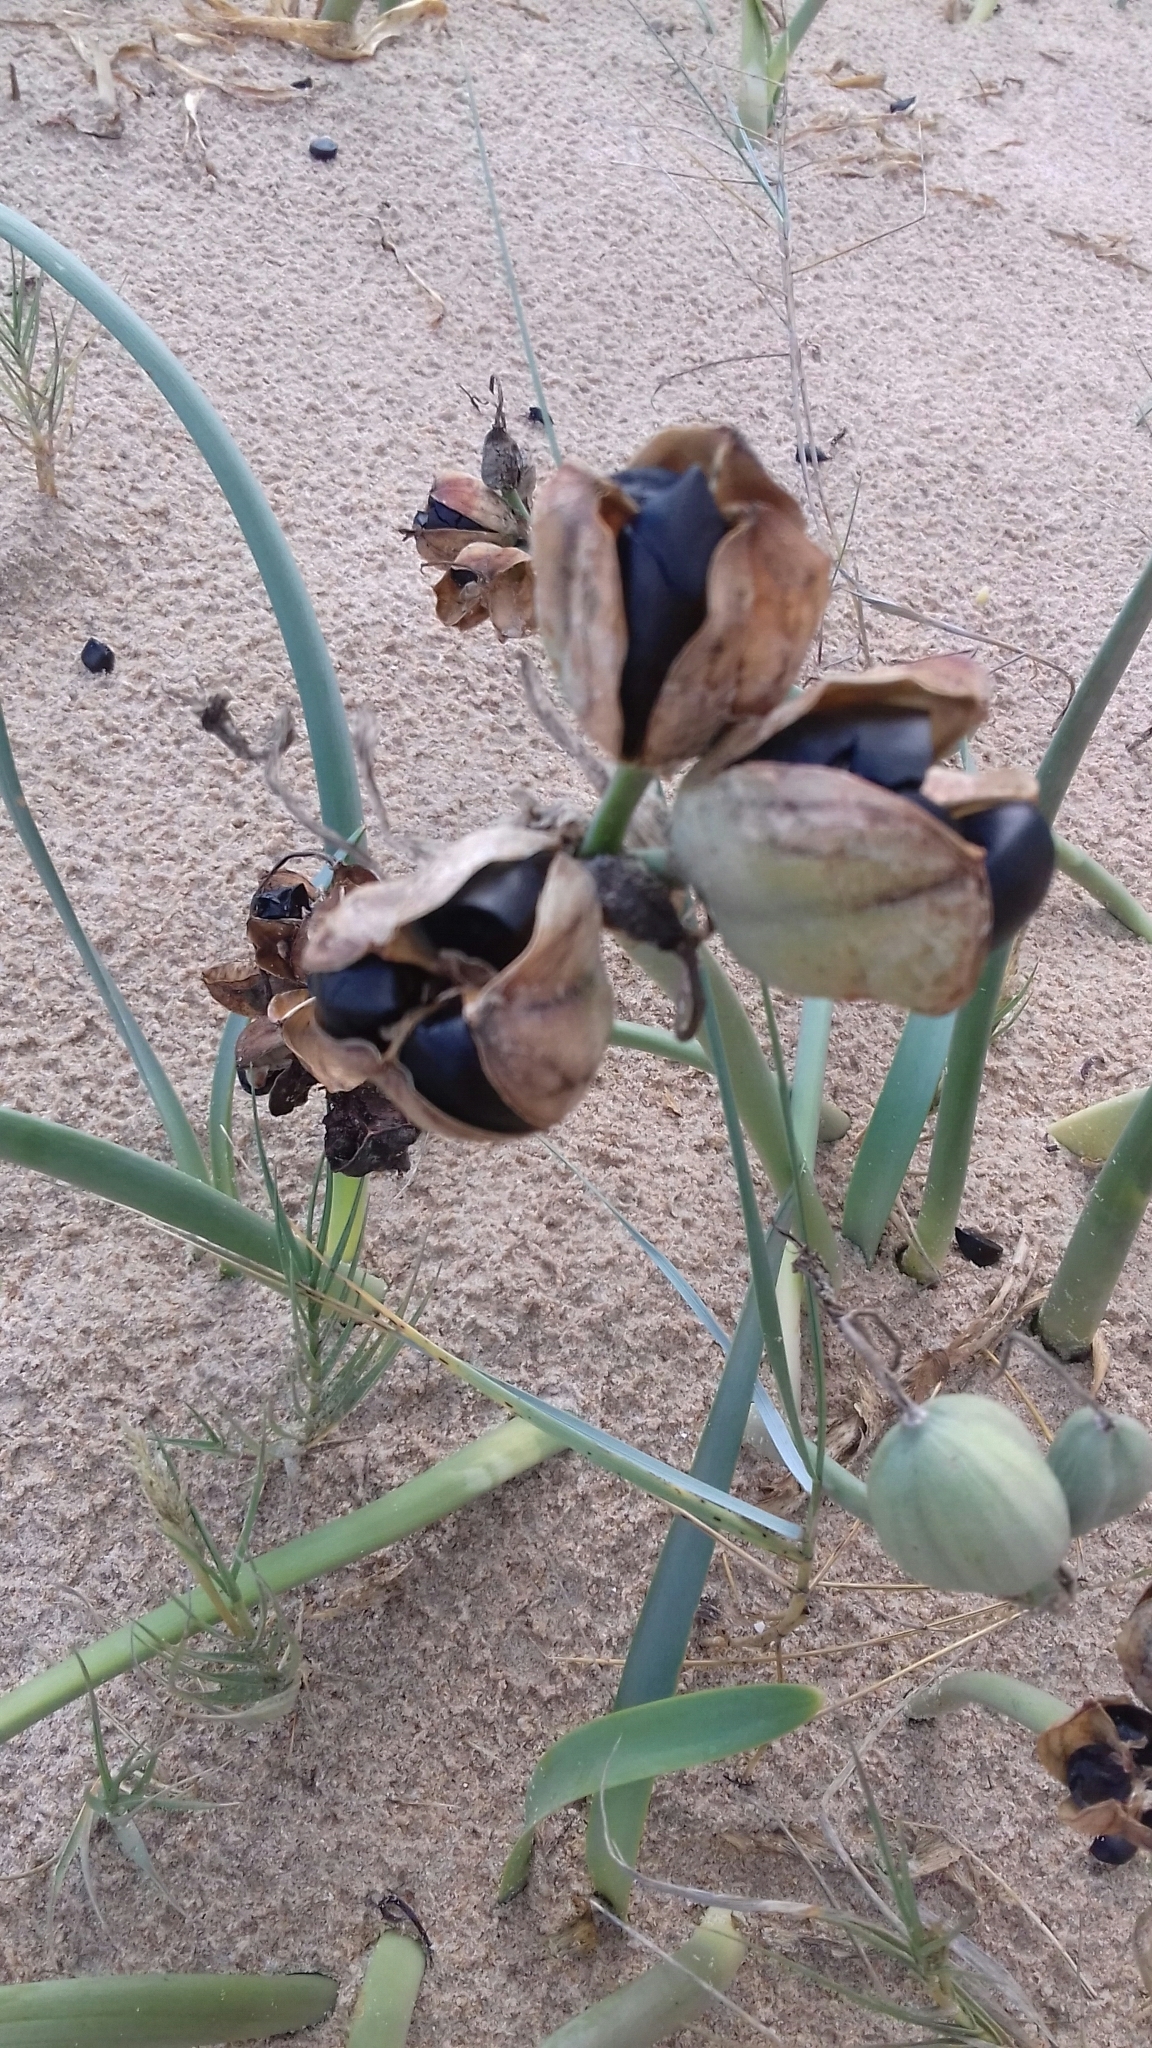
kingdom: Plantae
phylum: Tracheophyta
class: Liliopsida
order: Asparagales
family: Amaryllidaceae
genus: Pancratium
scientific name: Pancratium maritimum
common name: Sea-daffodil
